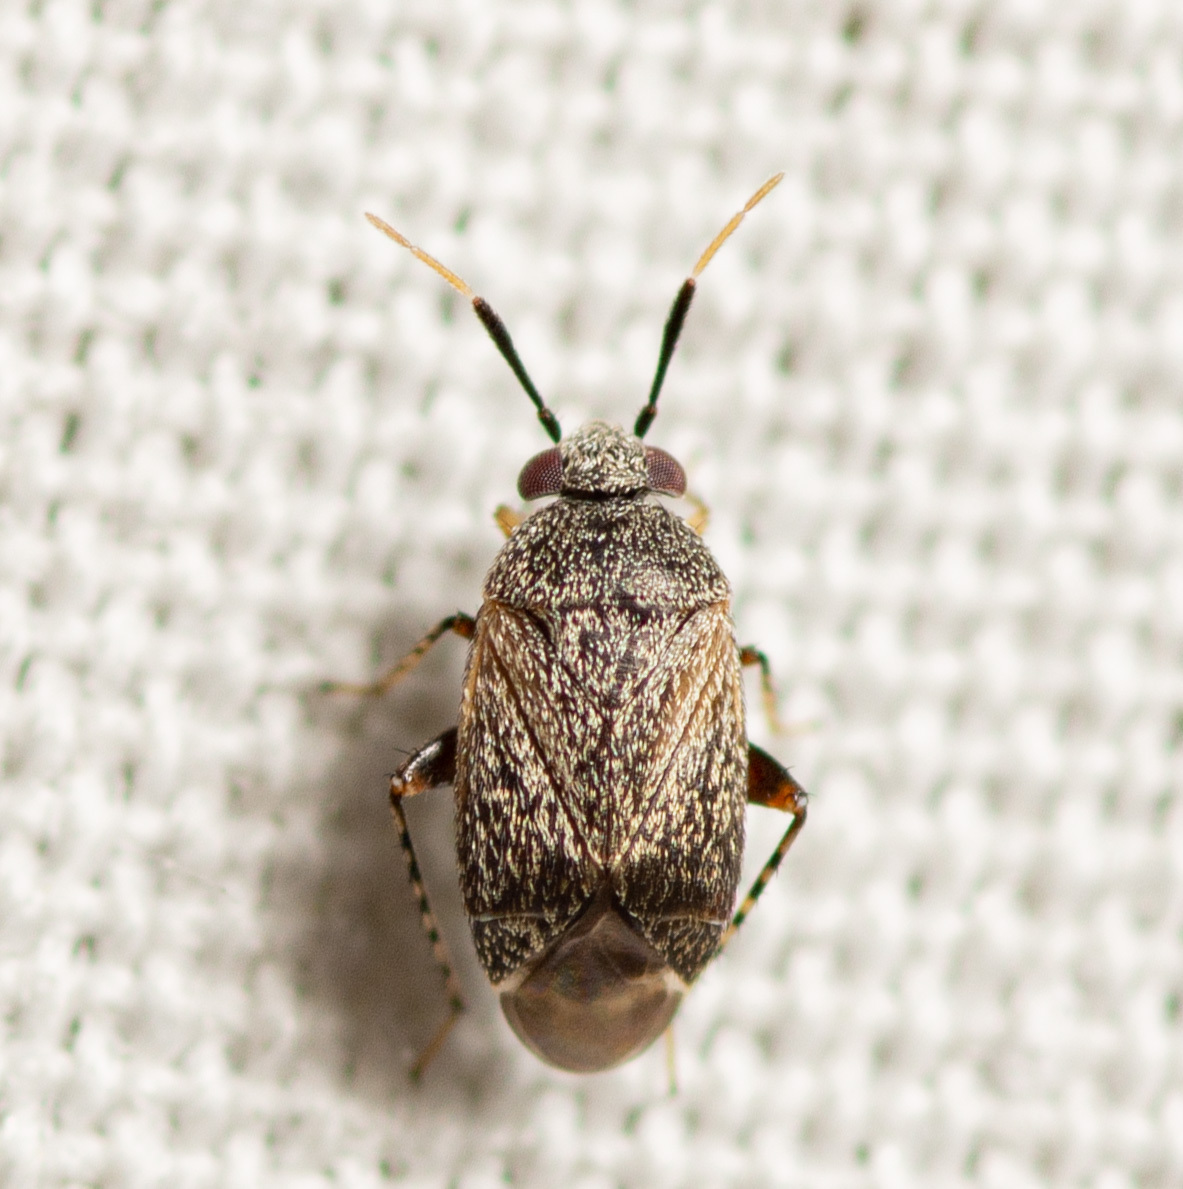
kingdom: Animalia
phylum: Arthropoda
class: Insecta
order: Hemiptera
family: Miridae
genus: Rhinacloa
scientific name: Rhinacloa forticornis
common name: Brown cotton mirid
